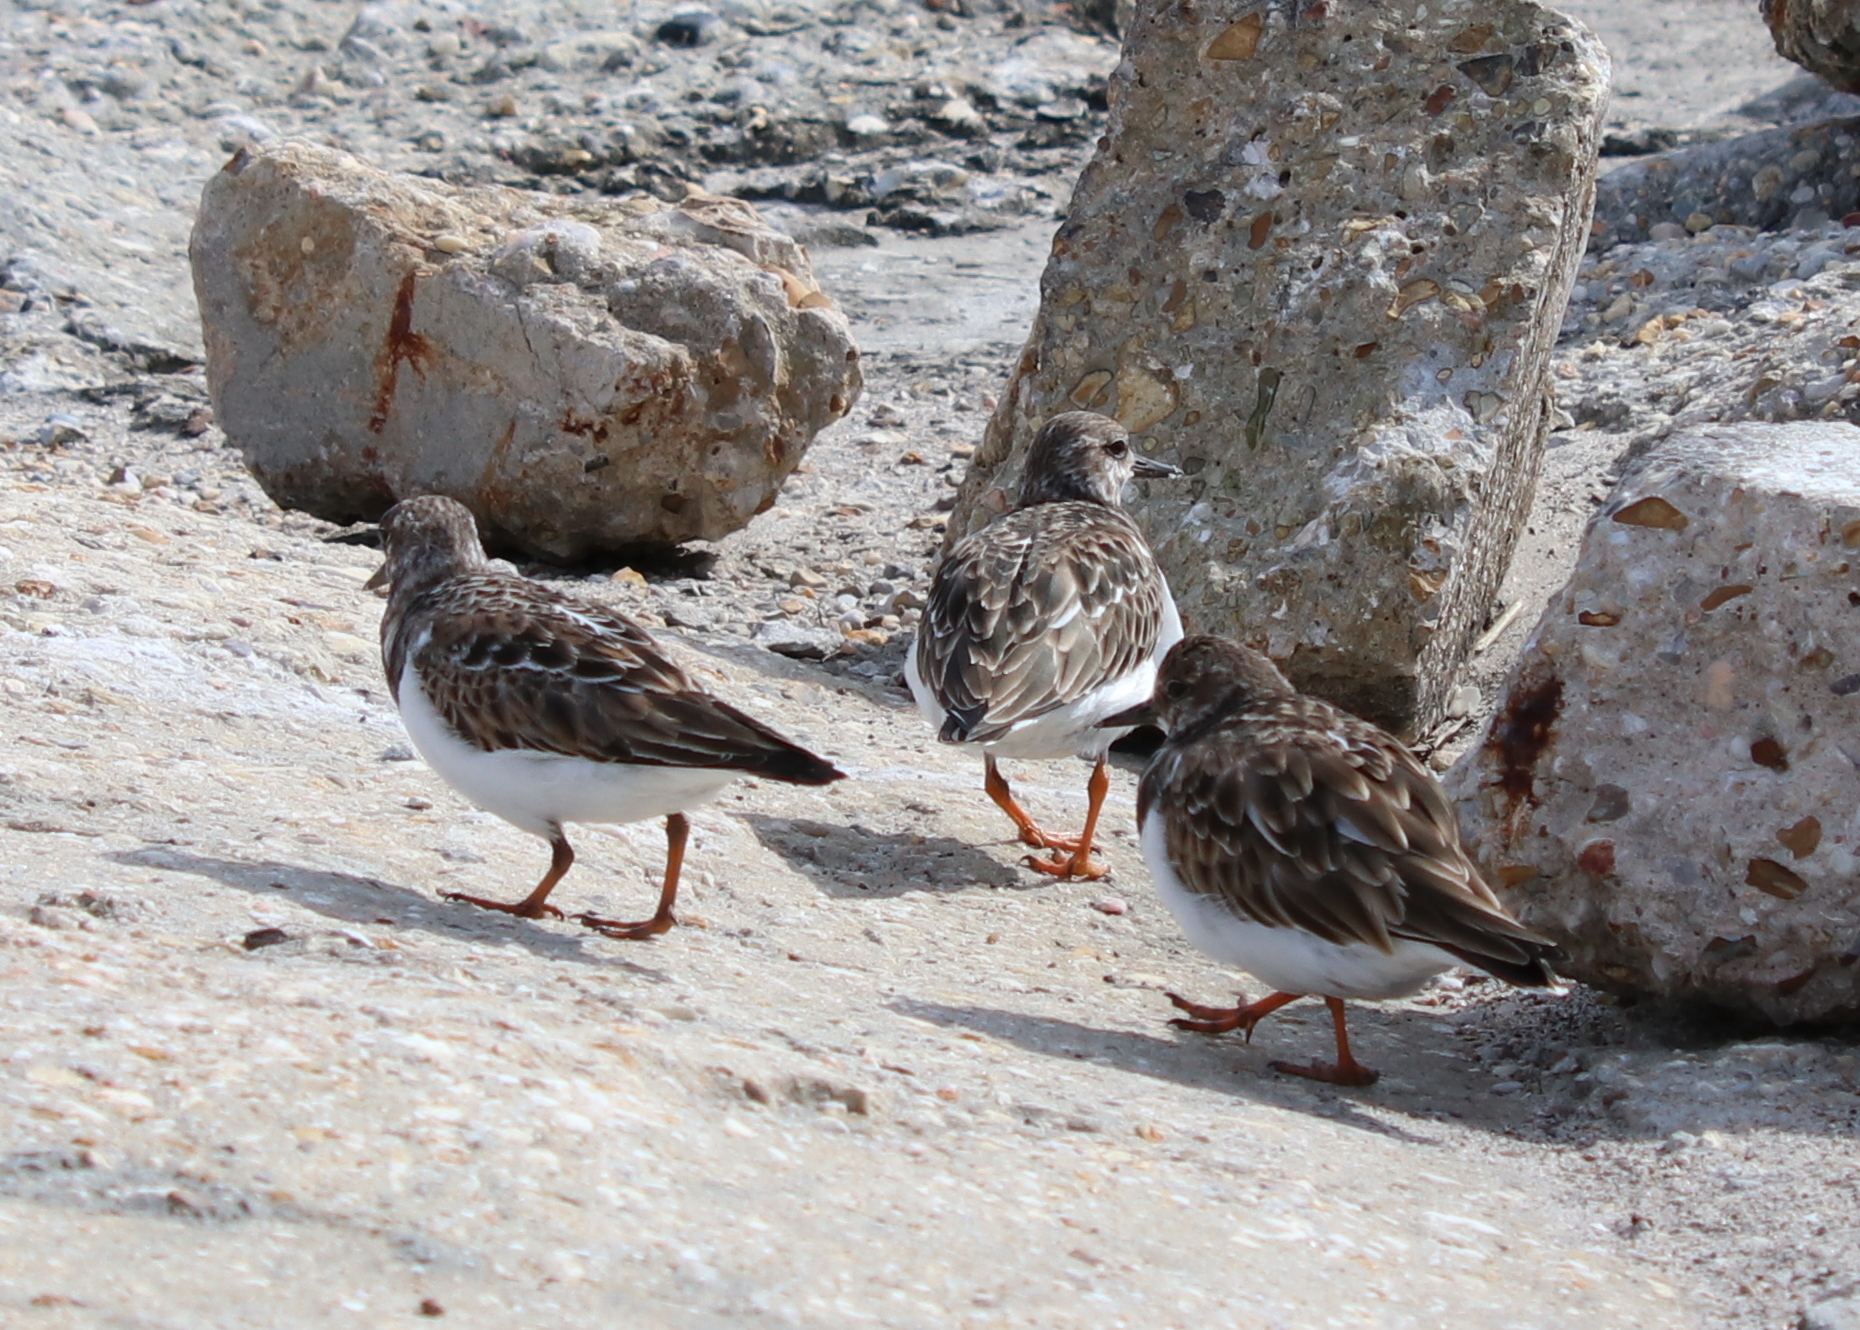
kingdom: Animalia
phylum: Chordata
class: Aves
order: Charadriiformes
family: Scolopacidae
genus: Arenaria
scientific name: Arenaria interpres
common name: Ruddy turnstone
